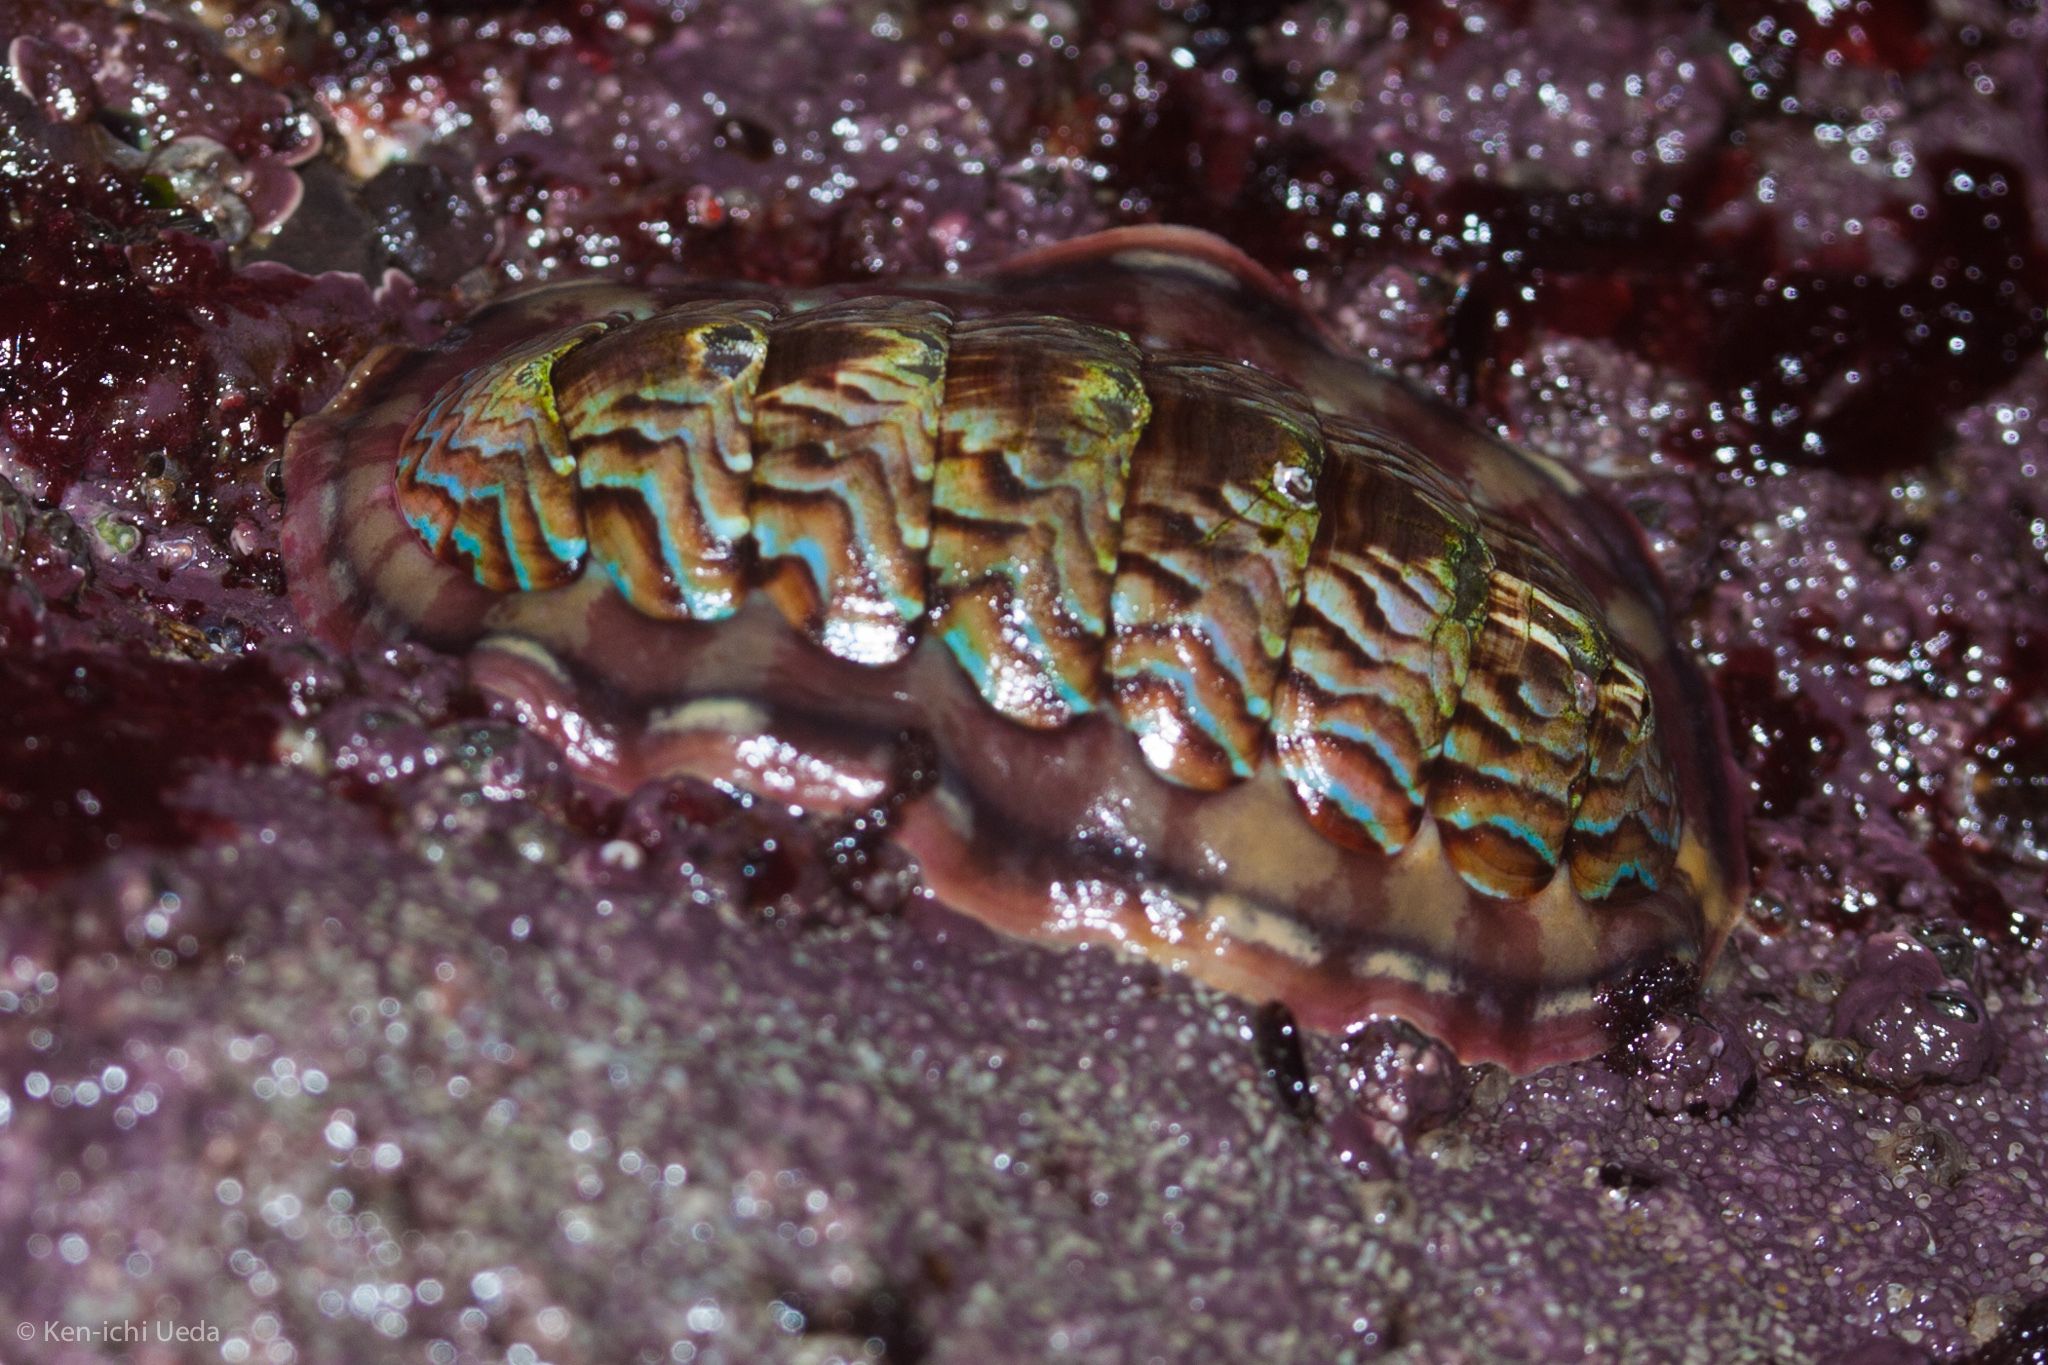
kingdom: Animalia
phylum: Mollusca
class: Polyplacophora
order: Chitonida
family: Tonicellidae
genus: Tonicella
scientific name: Tonicella lokii
